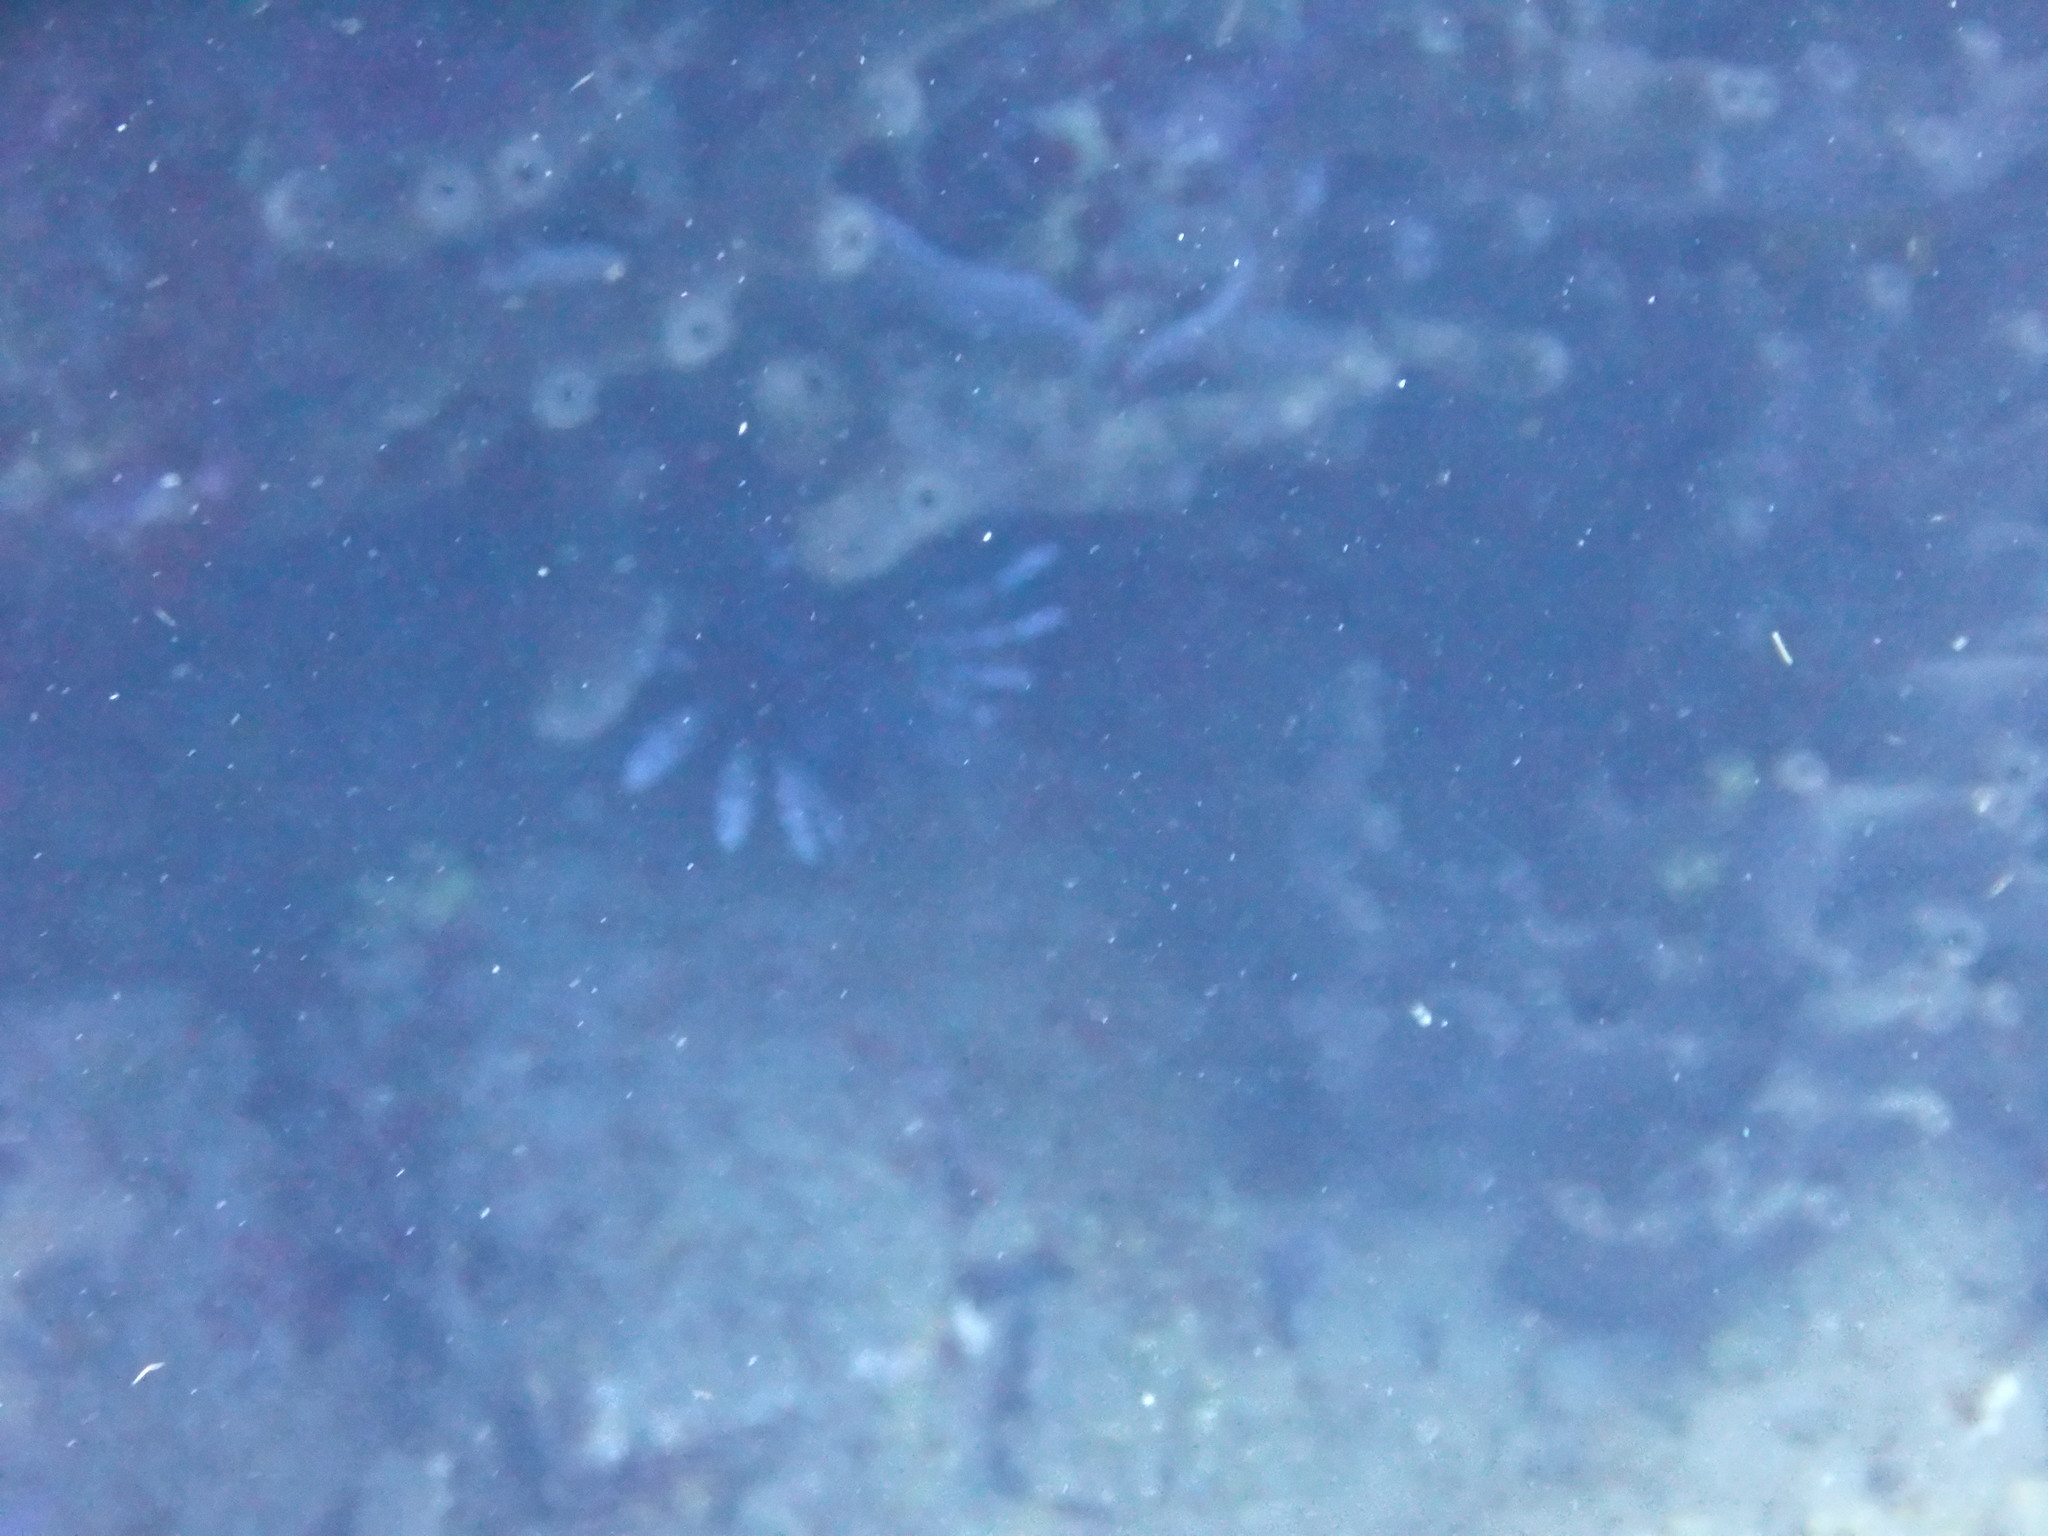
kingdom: Animalia
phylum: Chordata
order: Scorpaeniformes
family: Scorpaenidae
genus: Pterois
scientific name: Pterois volitans
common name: Lionfish
